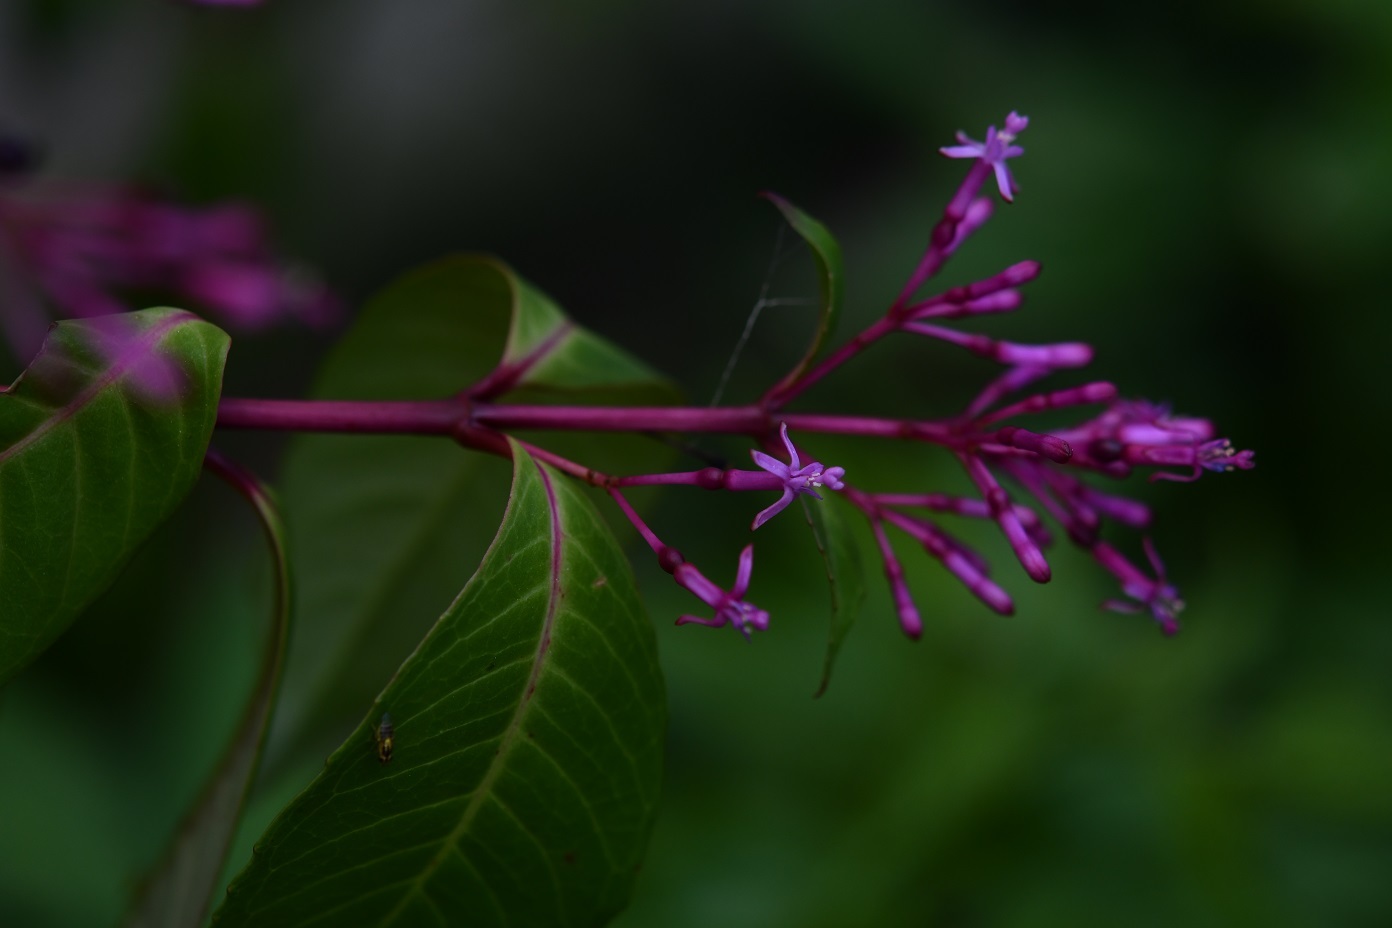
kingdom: Plantae
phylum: Tracheophyta
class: Magnoliopsida
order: Myrtales
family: Onagraceae
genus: Fuchsia
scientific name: Fuchsia paniculata
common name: Shrubby fuchsia
